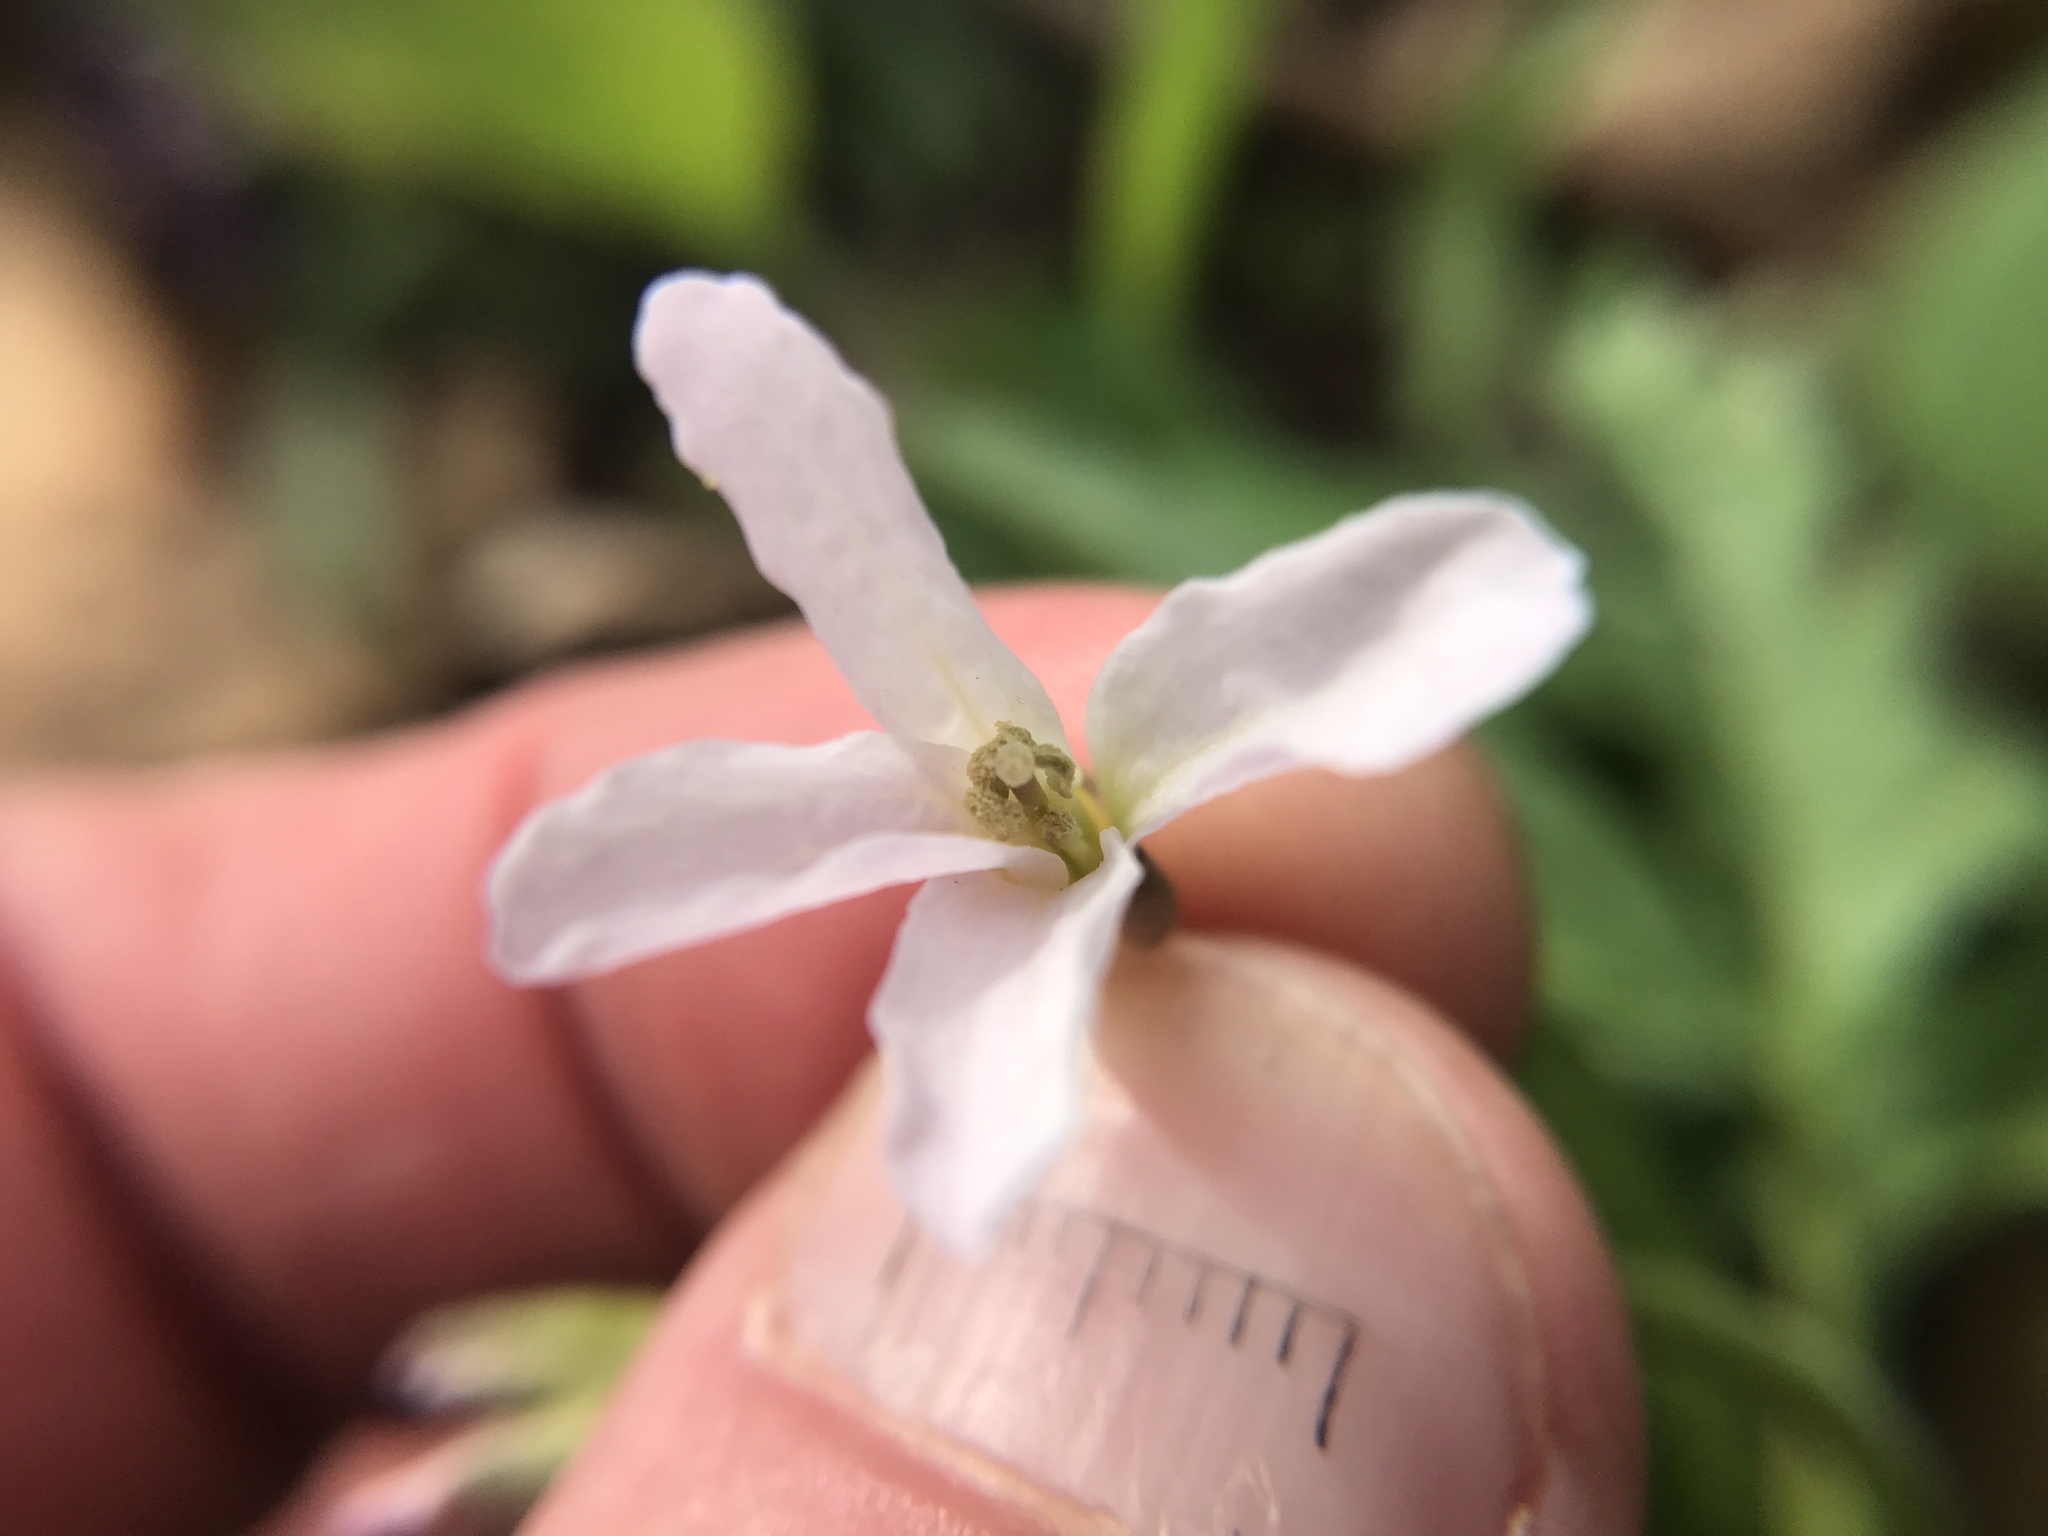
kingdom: Plantae
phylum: Tracheophyta
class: Magnoliopsida
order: Brassicales
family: Brassicaceae
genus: Cardamine
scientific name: Cardamine concatenata
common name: Cut-leaf toothcup
